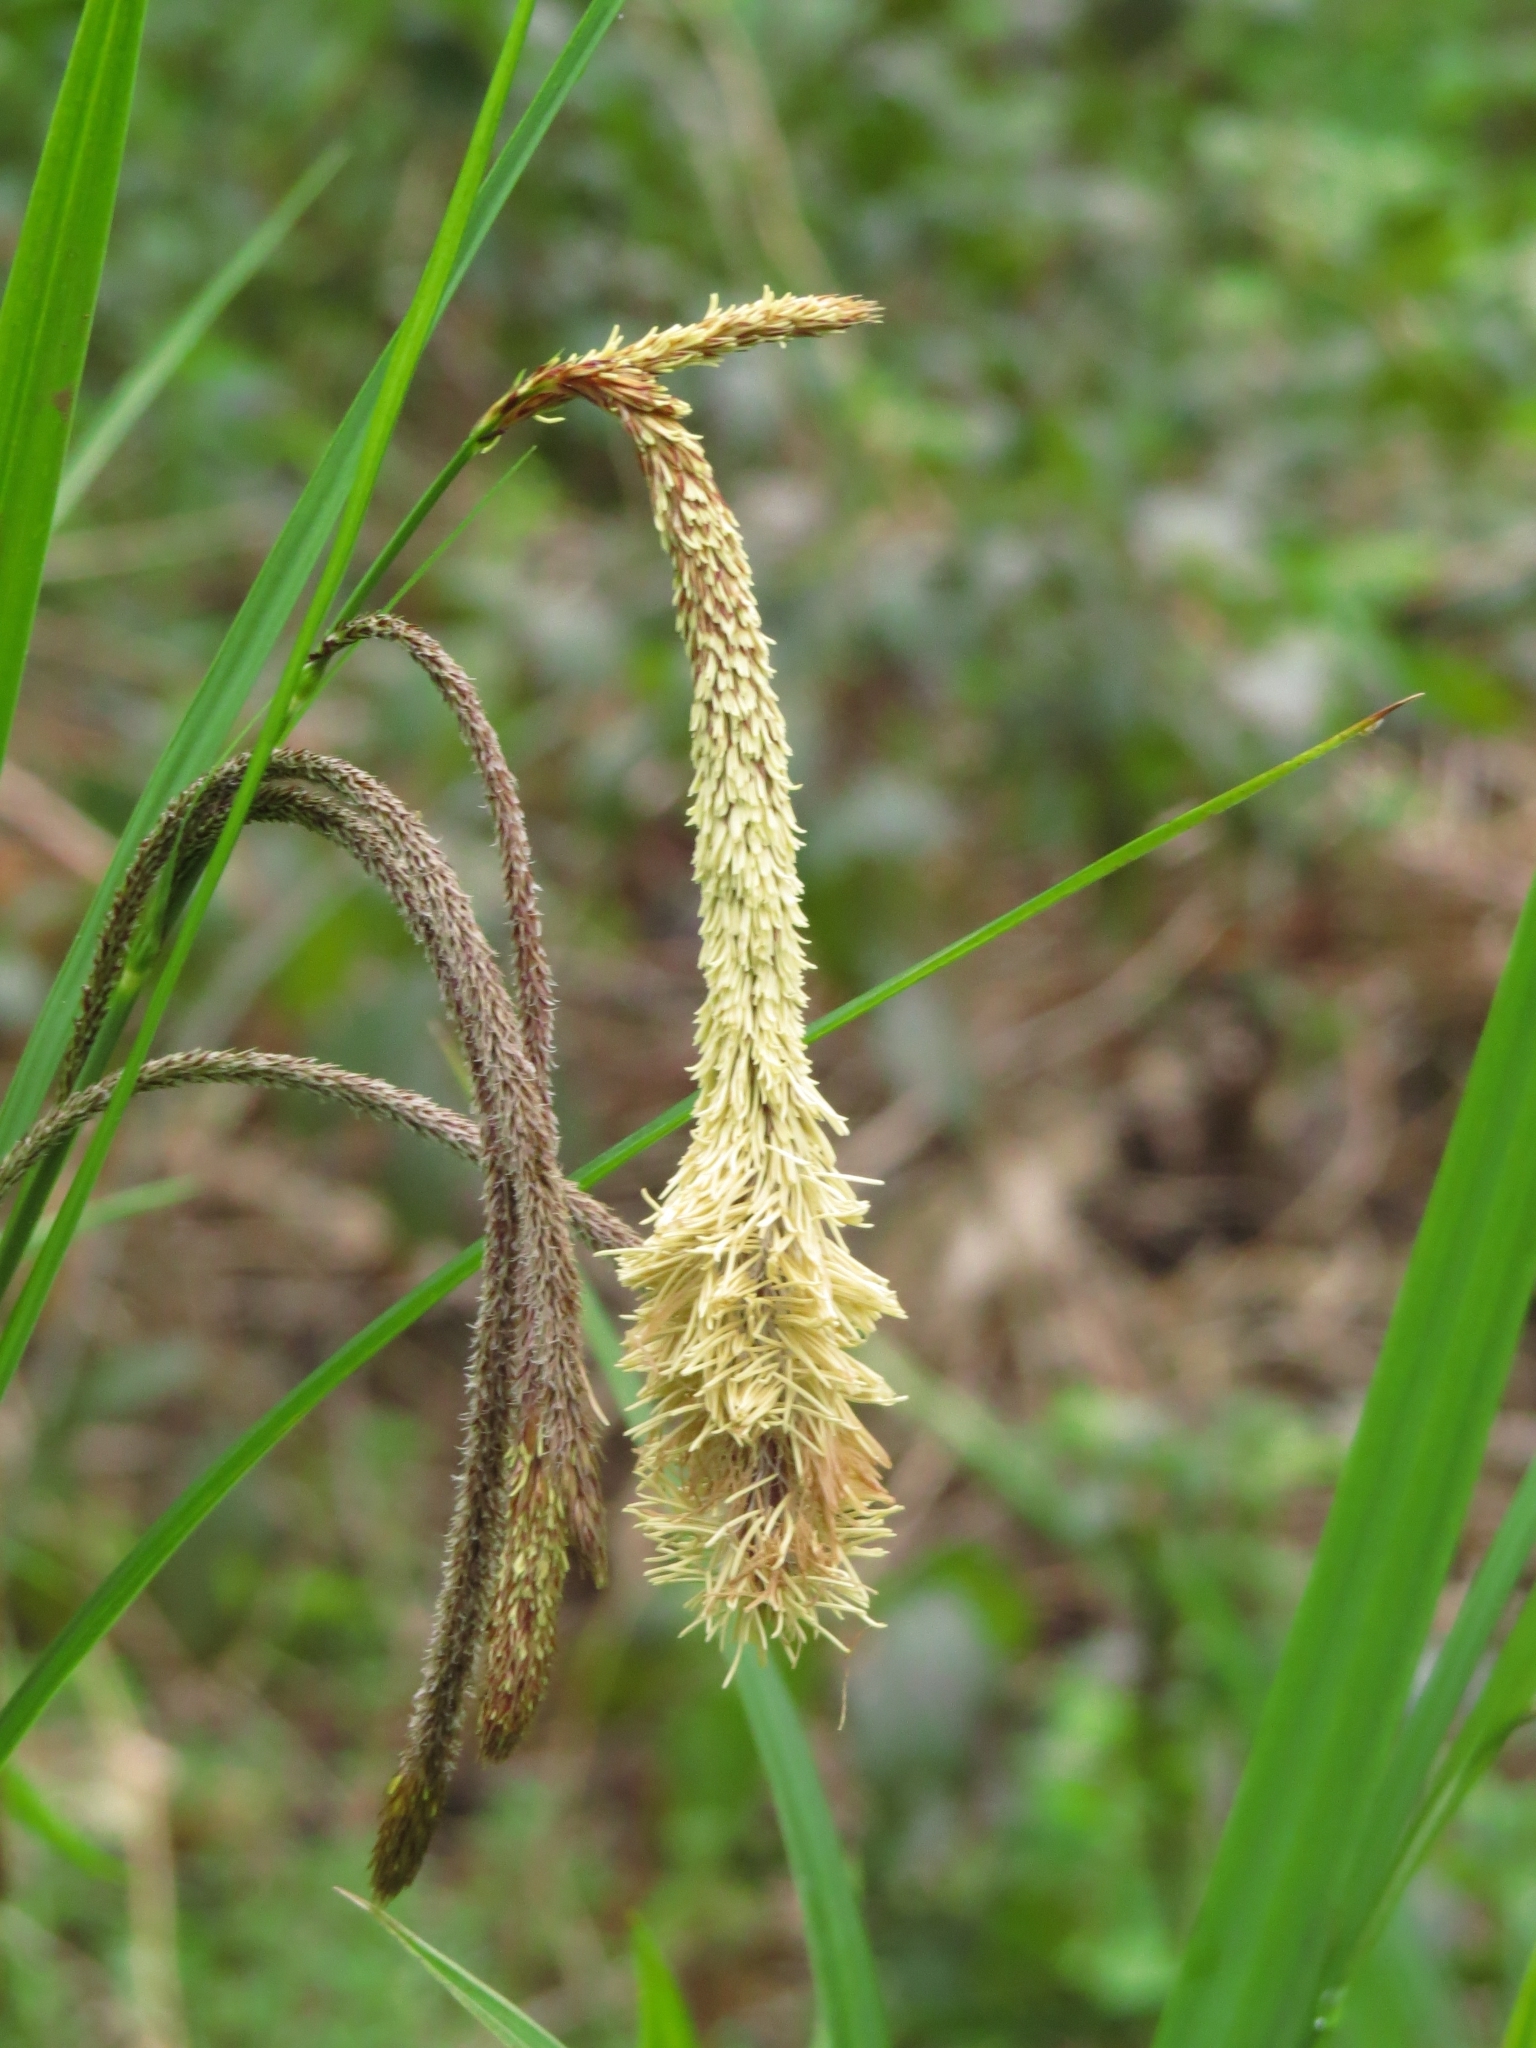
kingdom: Plantae
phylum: Tracheophyta
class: Liliopsida
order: Poales
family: Cyperaceae
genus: Carex
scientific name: Carex pendula
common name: Pendulous sedge
